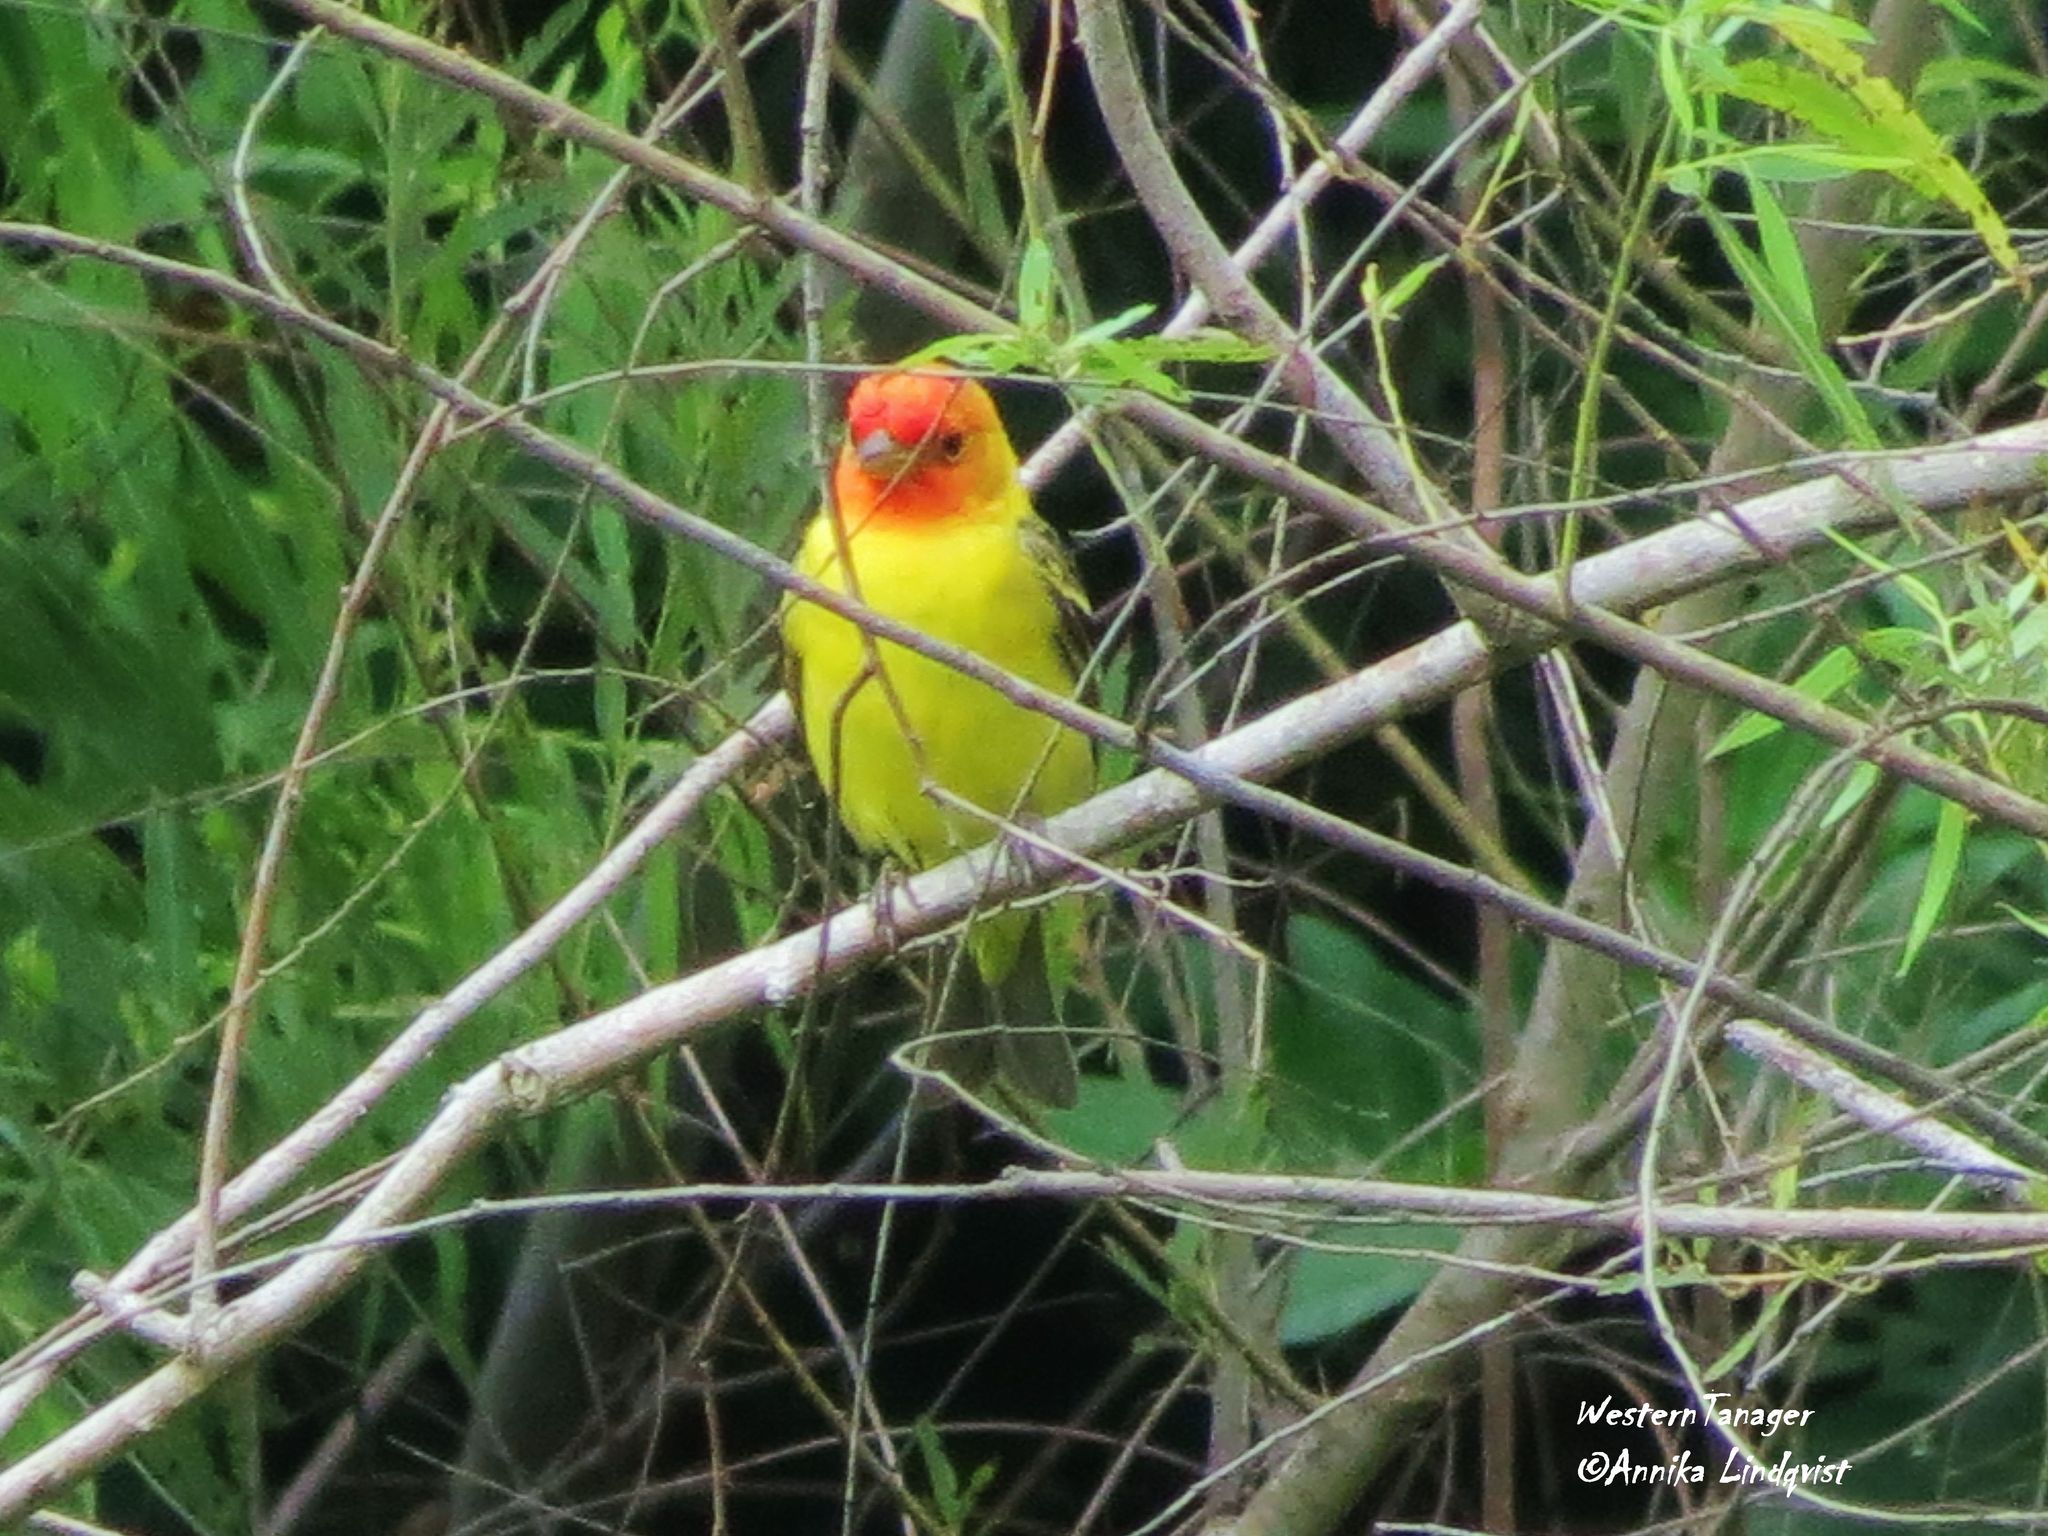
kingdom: Animalia
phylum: Chordata
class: Aves
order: Passeriformes
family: Cardinalidae
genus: Piranga
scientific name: Piranga ludoviciana
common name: Western tanager
